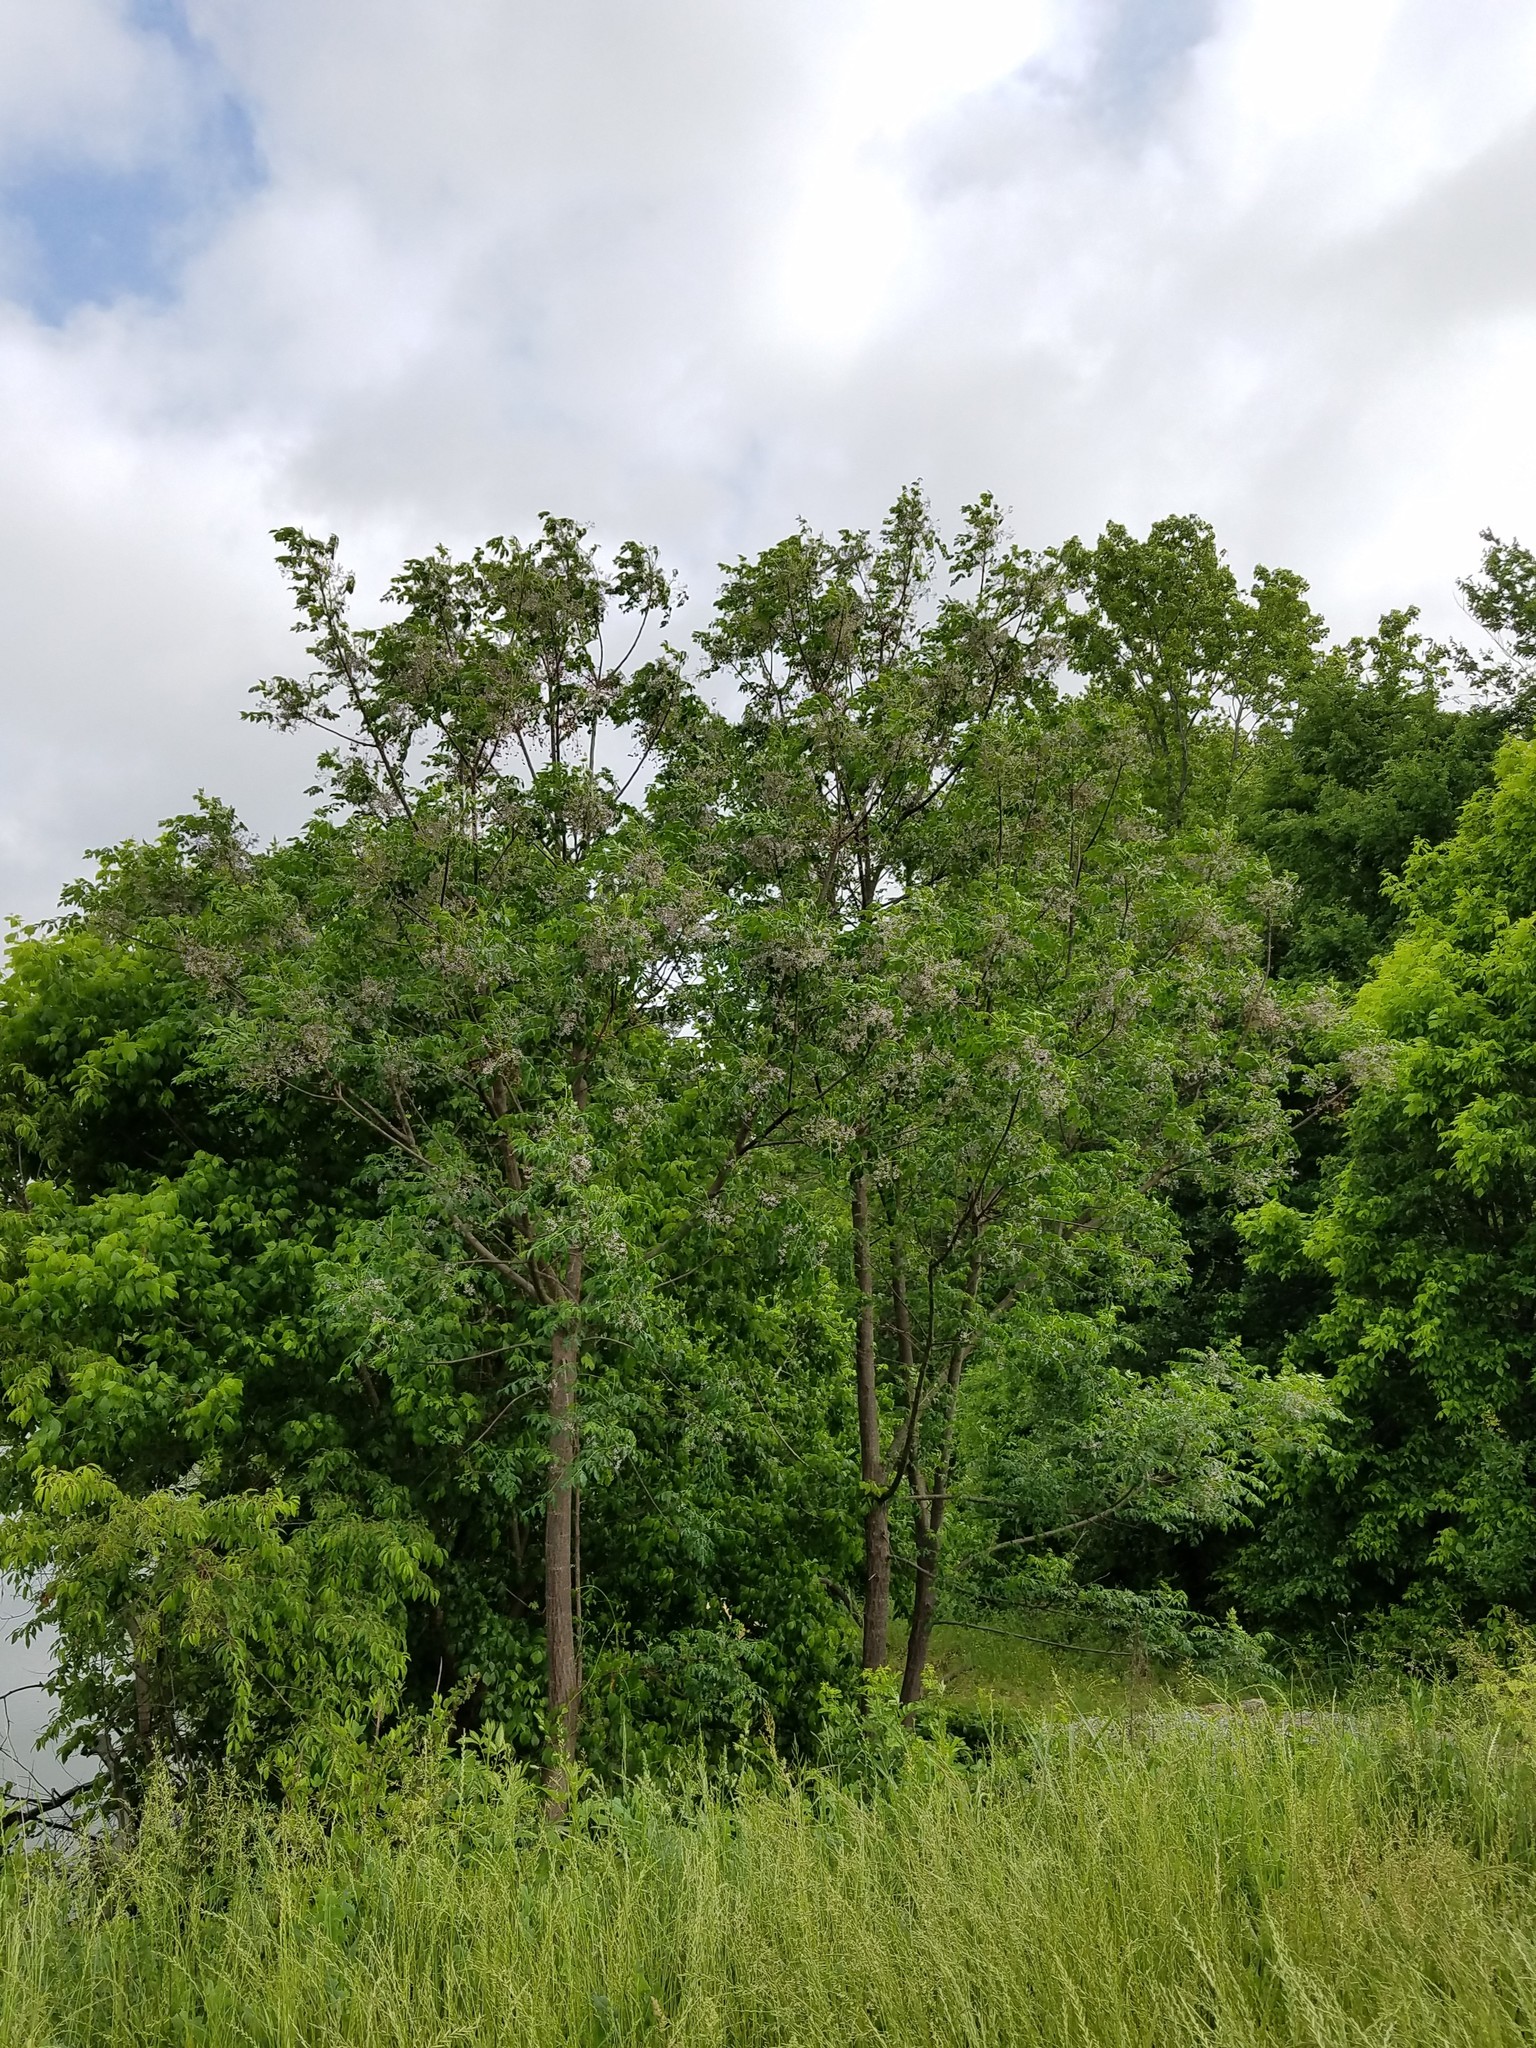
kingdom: Plantae
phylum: Tracheophyta
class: Magnoliopsida
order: Sapindales
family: Meliaceae
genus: Melia
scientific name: Melia azedarach
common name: Chinaberrytree
